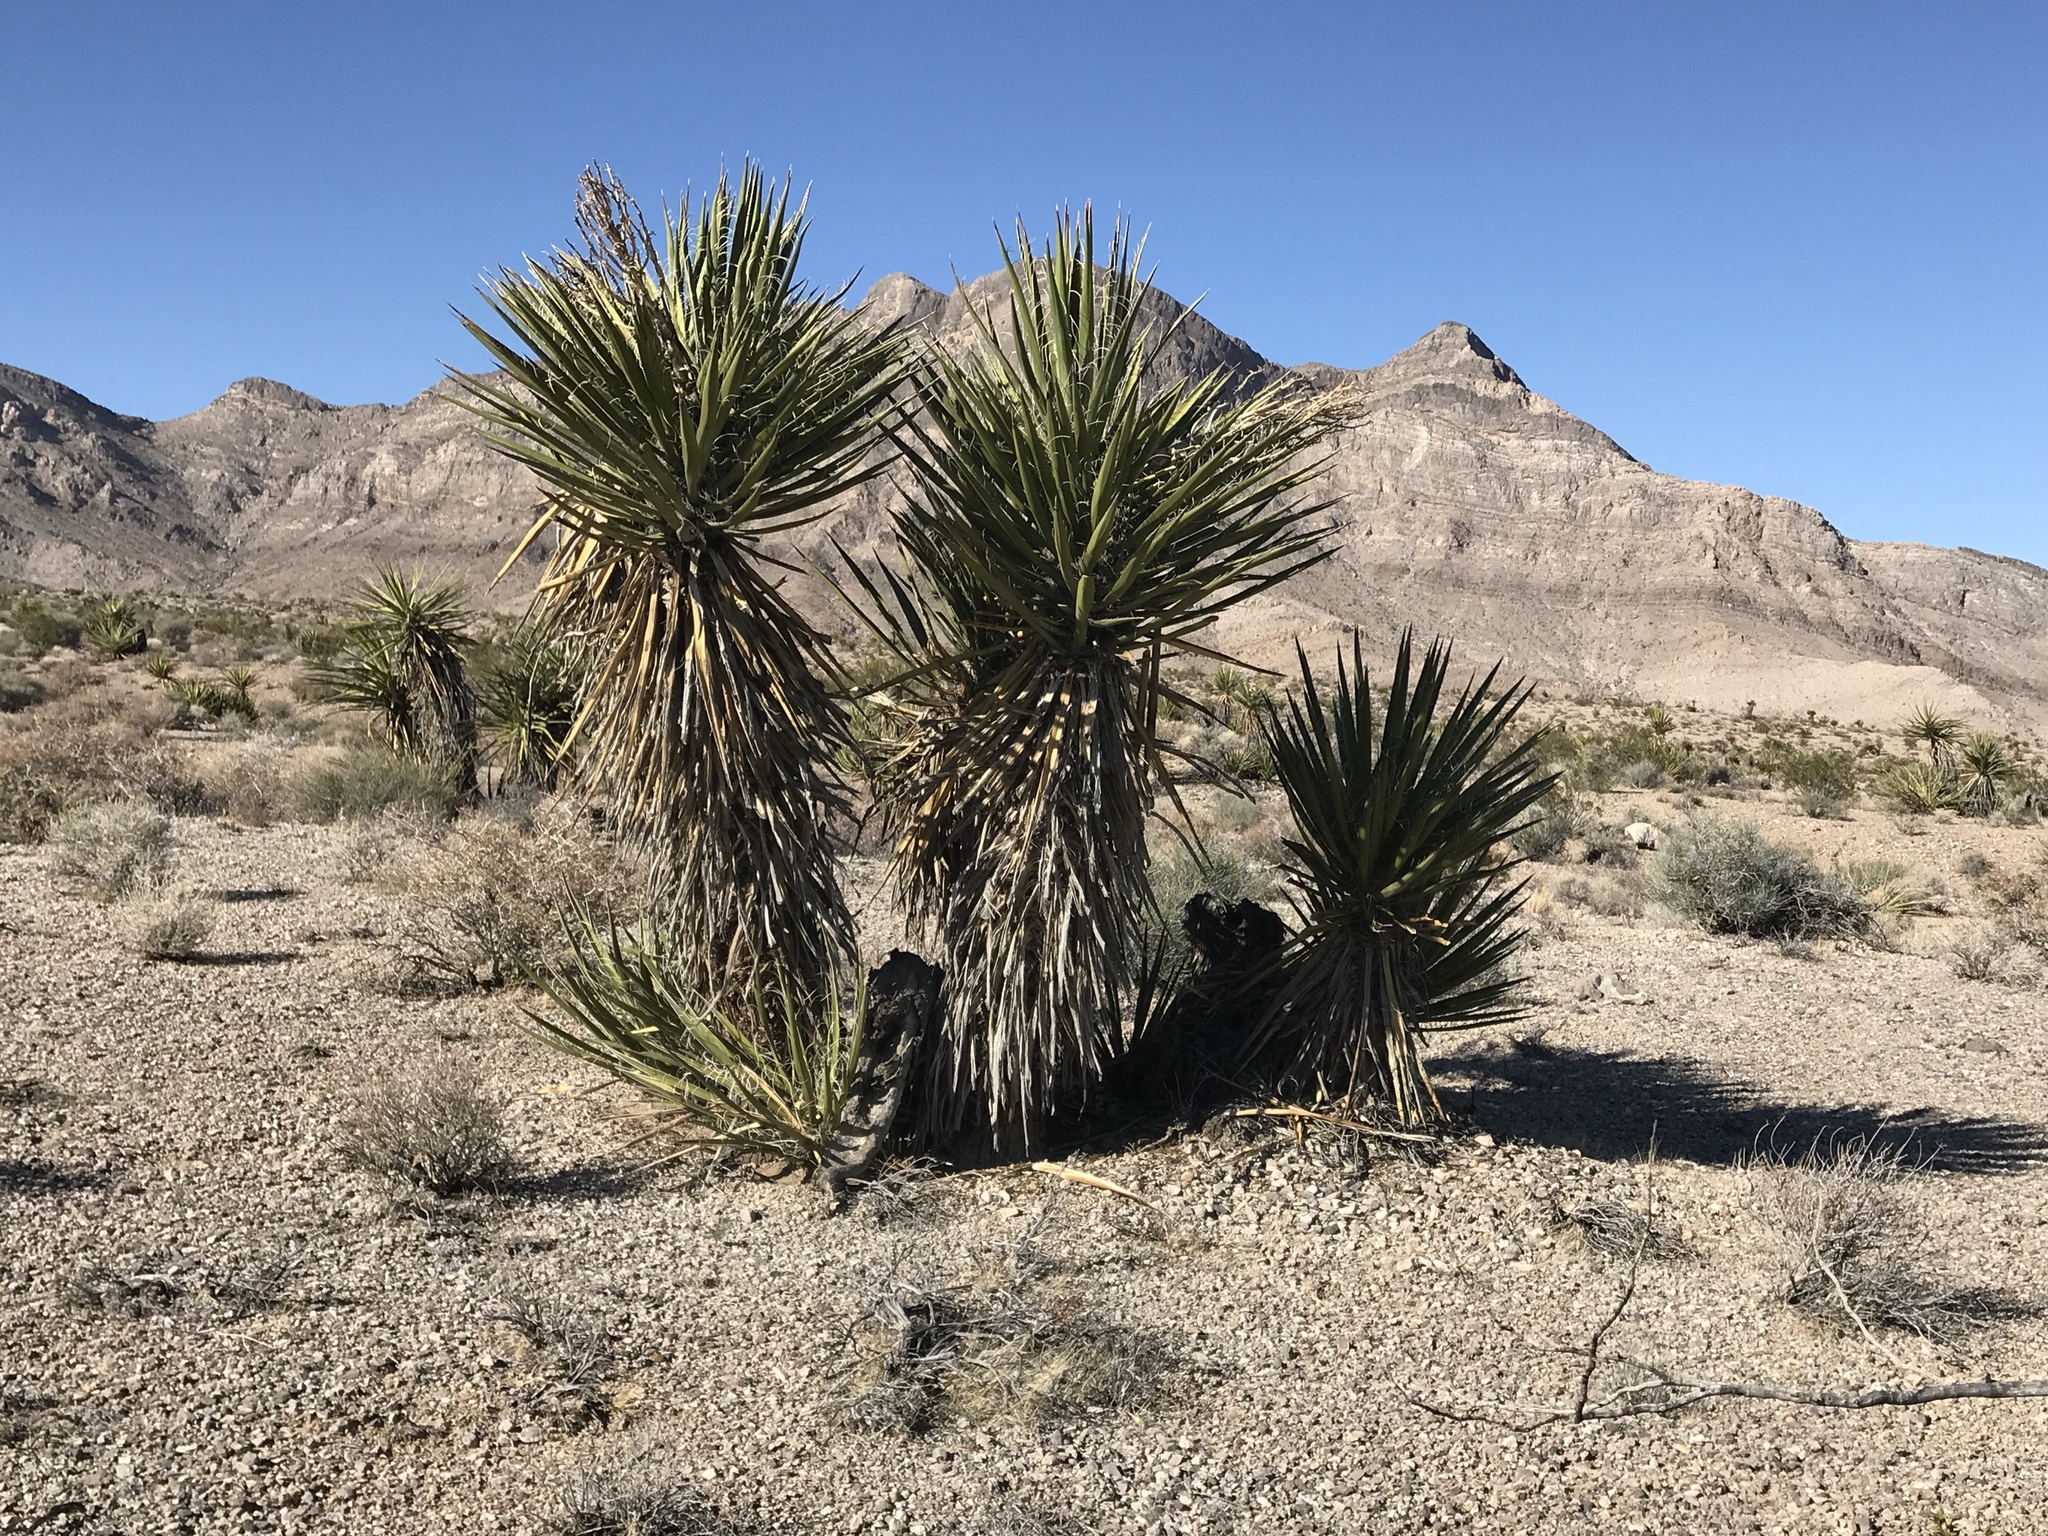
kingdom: Plantae
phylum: Tracheophyta
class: Liliopsida
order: Asparagales
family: Asparagaceae
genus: Yucca
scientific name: Yucca schidigera
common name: Mojave yucca
